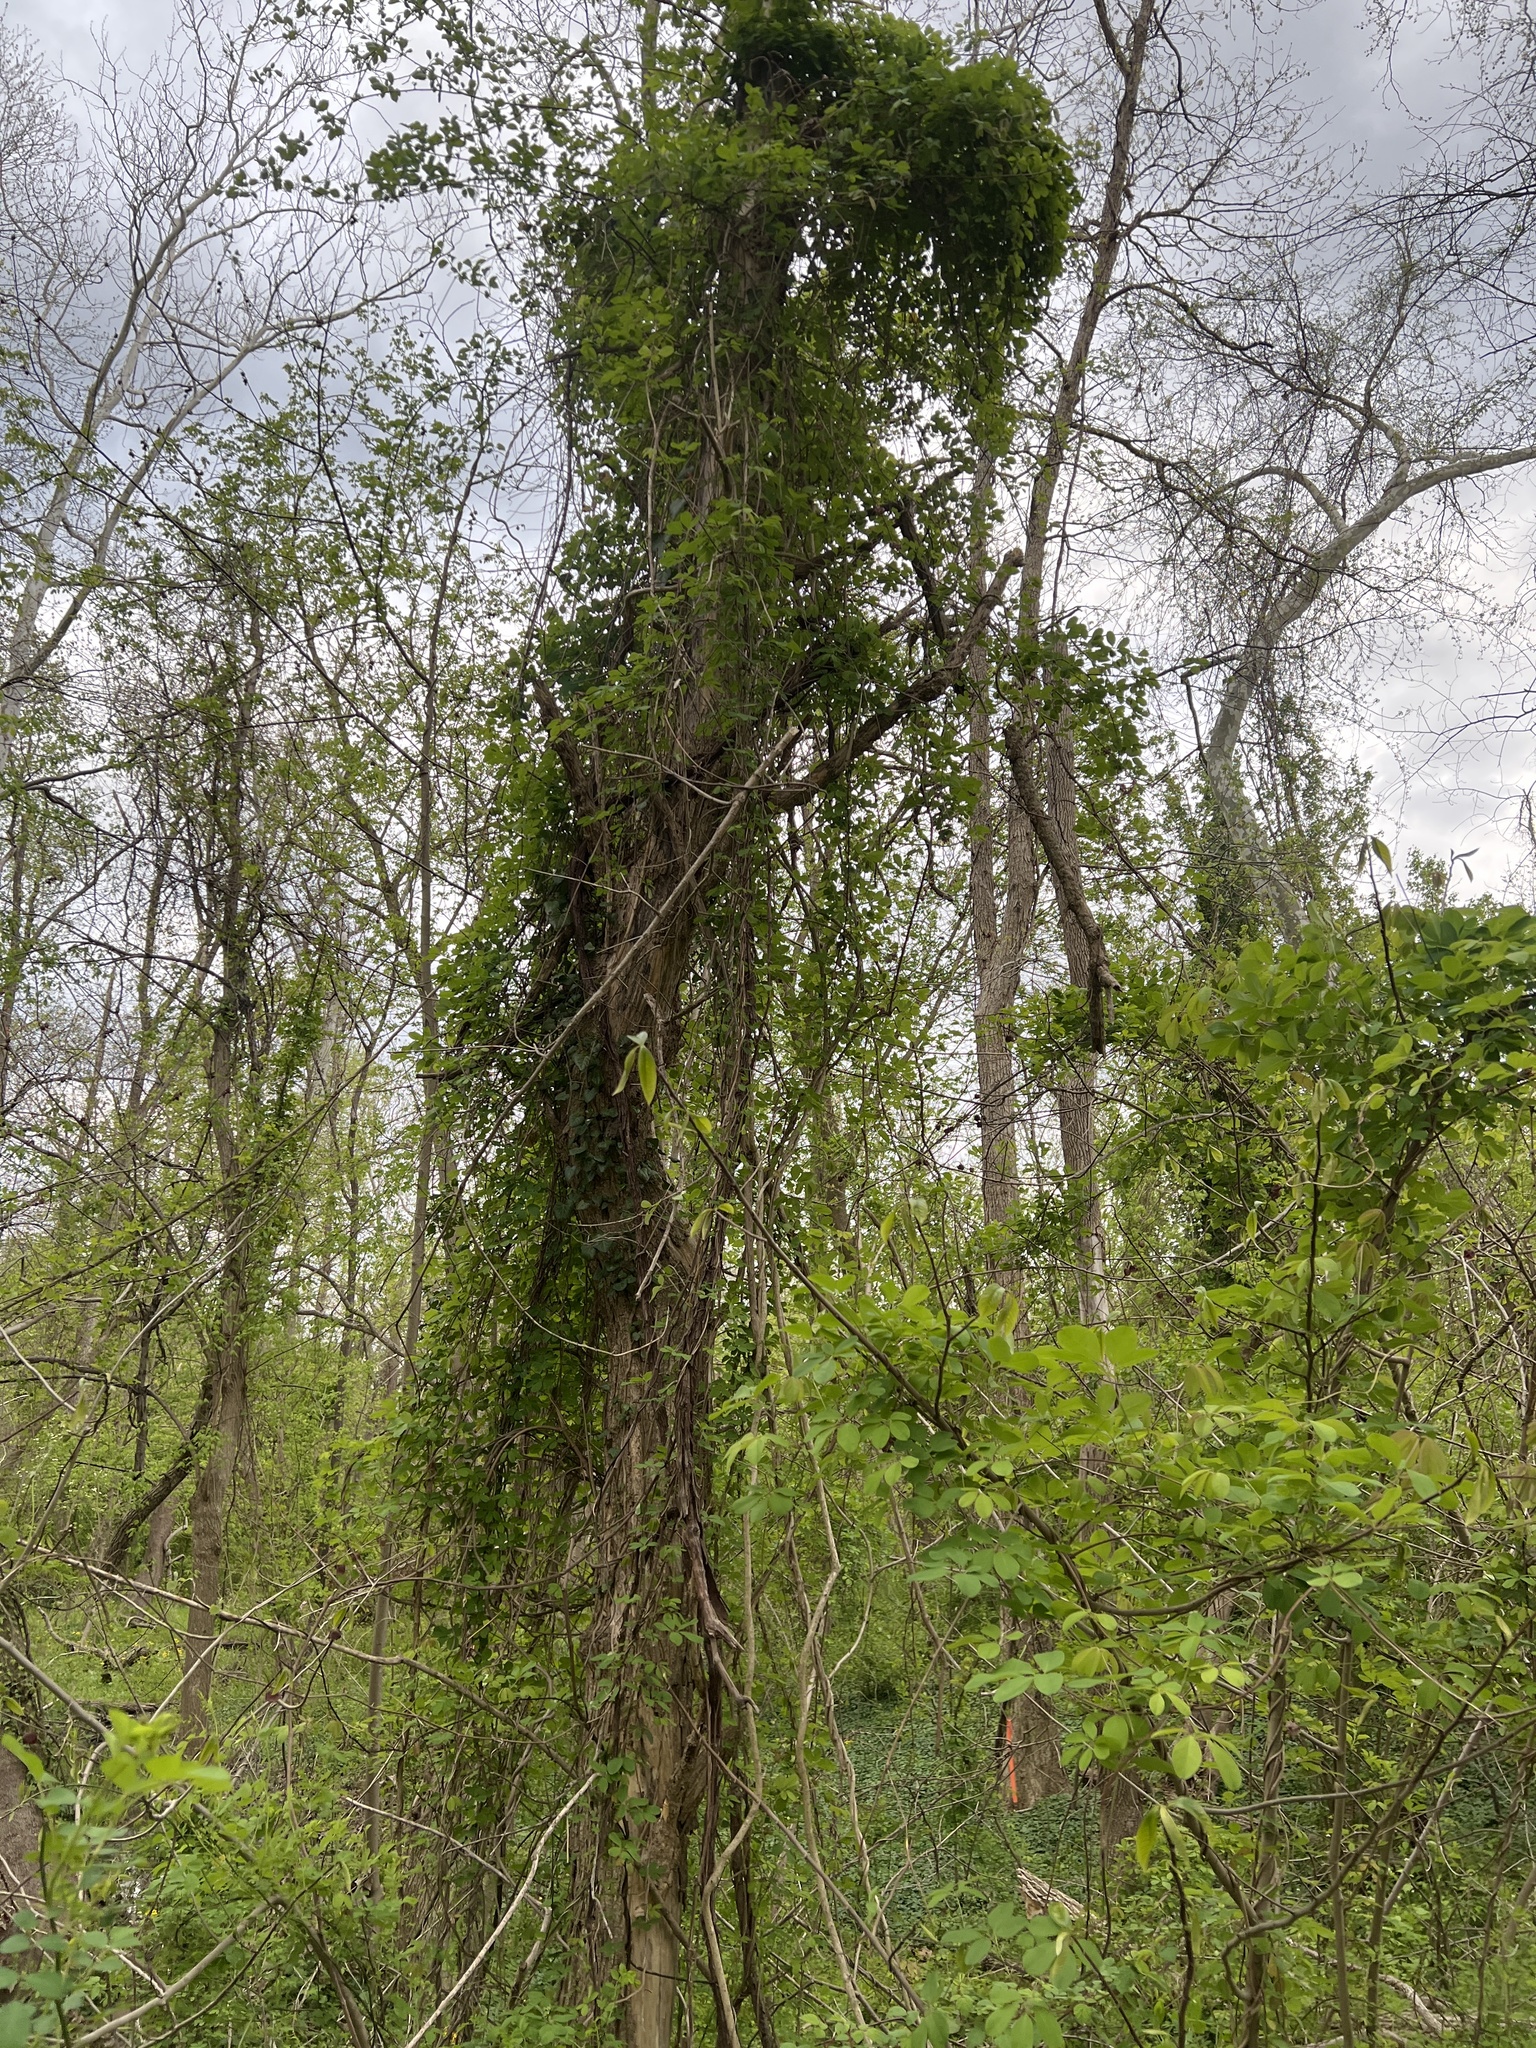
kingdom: Plantae
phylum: Tracheophyta
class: Magnoliopsida
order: Ranunculales
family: Lardizabalaceae
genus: Akebia
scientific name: Akebia quinata
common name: Five-leaf akebia
